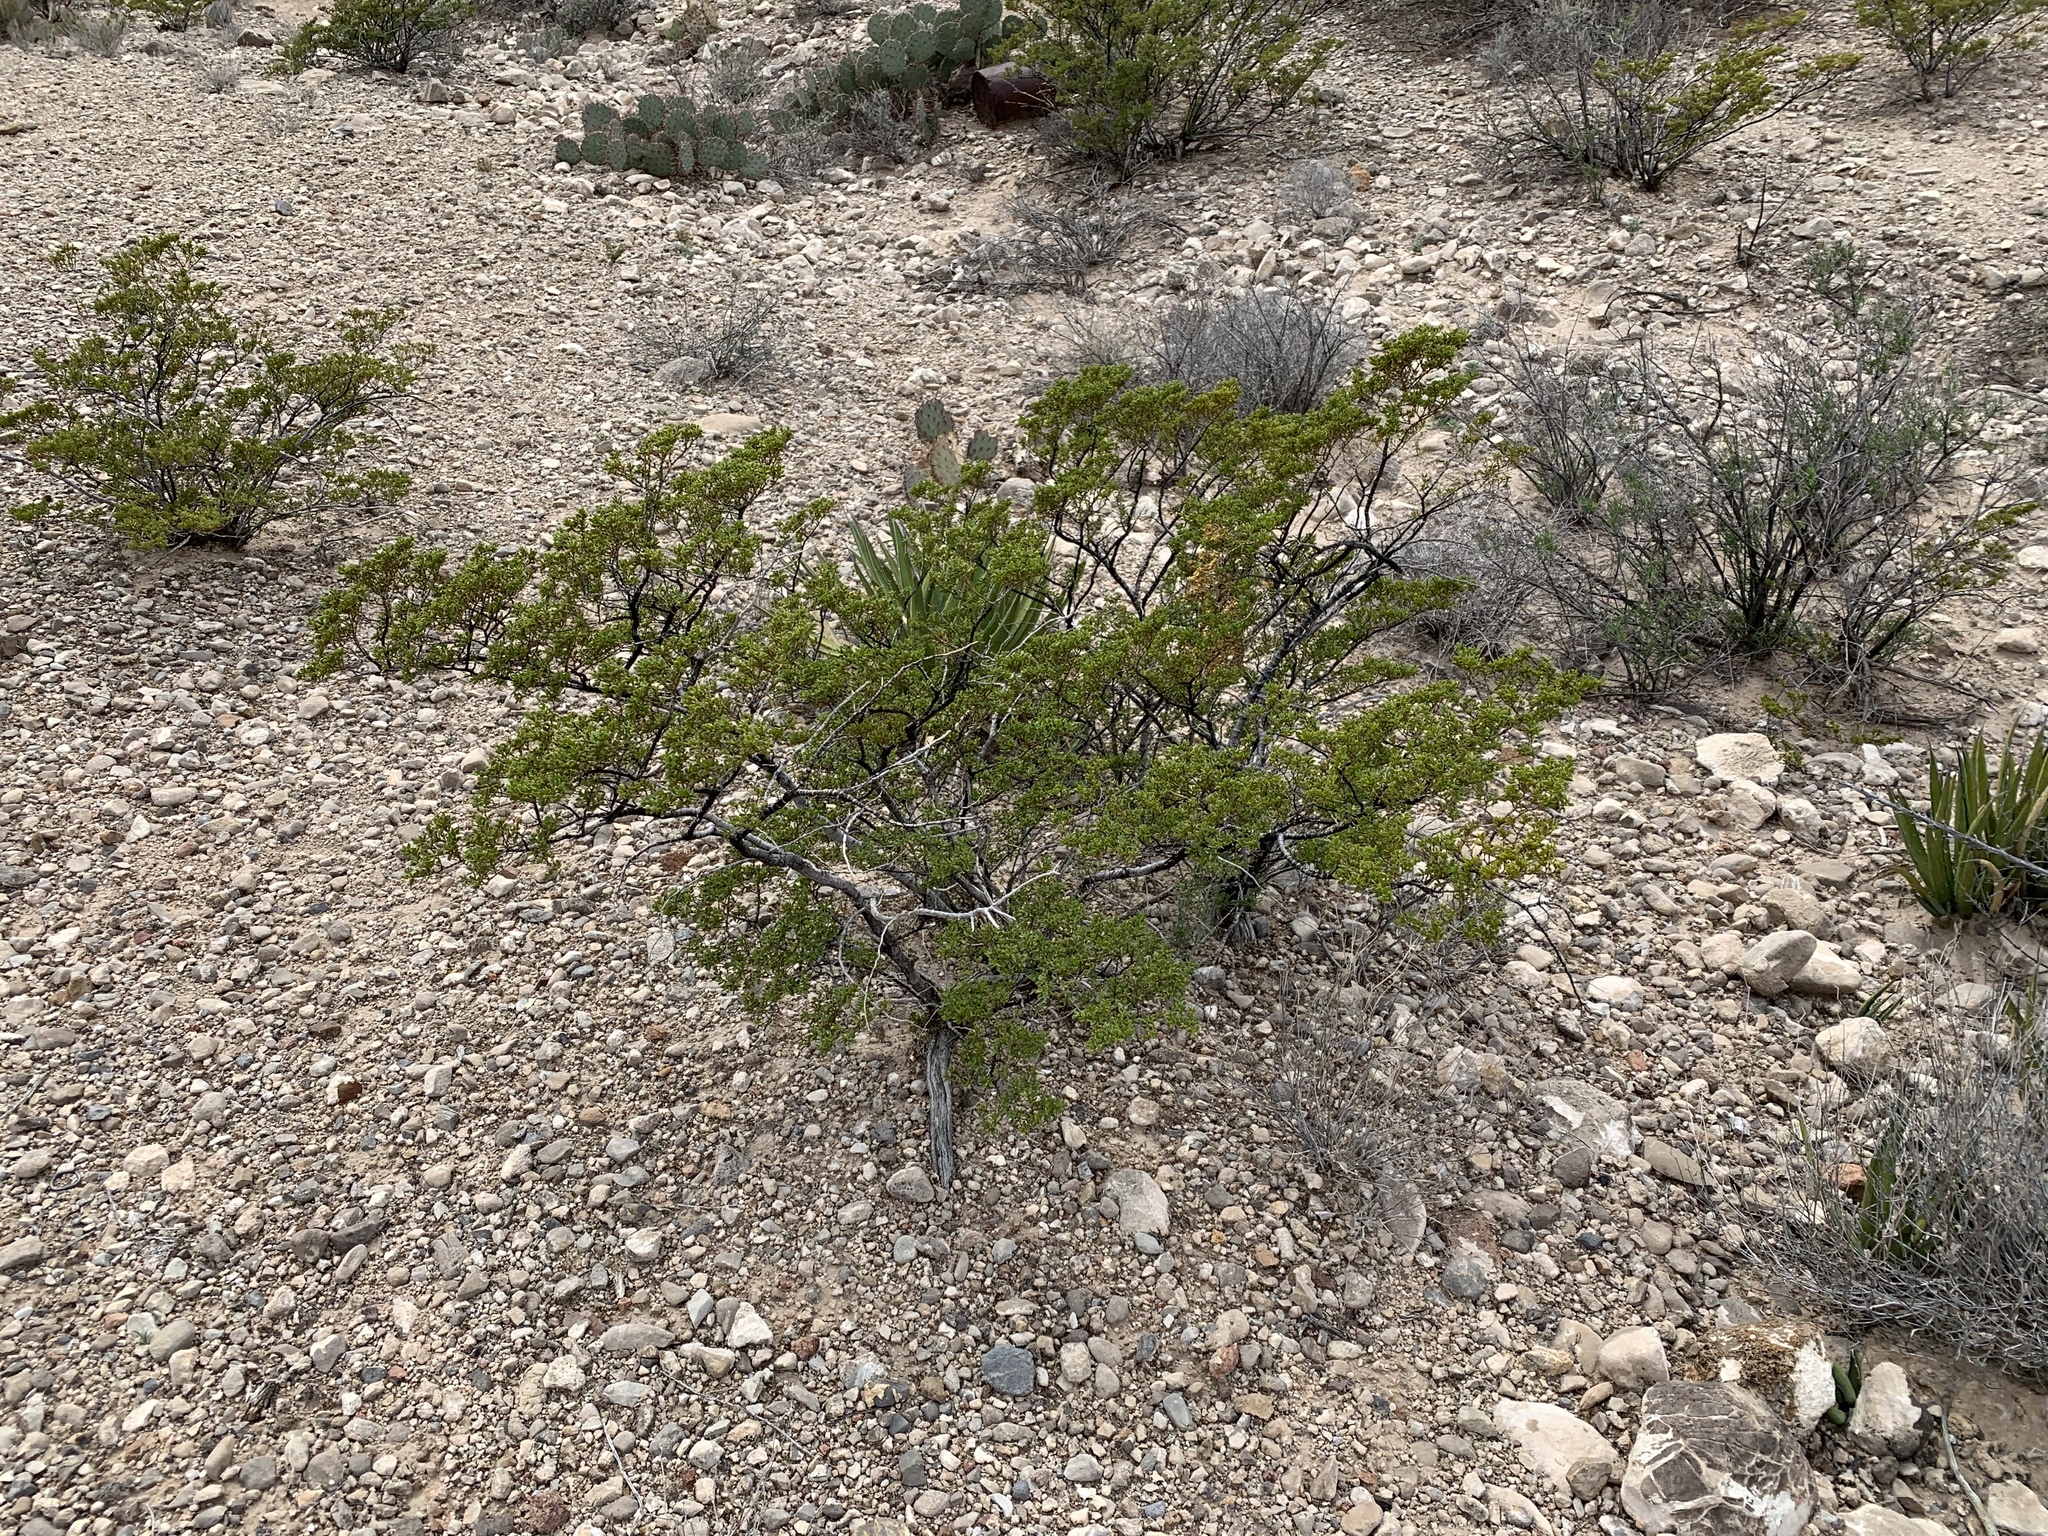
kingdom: Plantae
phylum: Tracheophyta
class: Magnoliopsida
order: Zygophyllales
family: Zygophyllaceae
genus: Larrea
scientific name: Larrea tridentata
